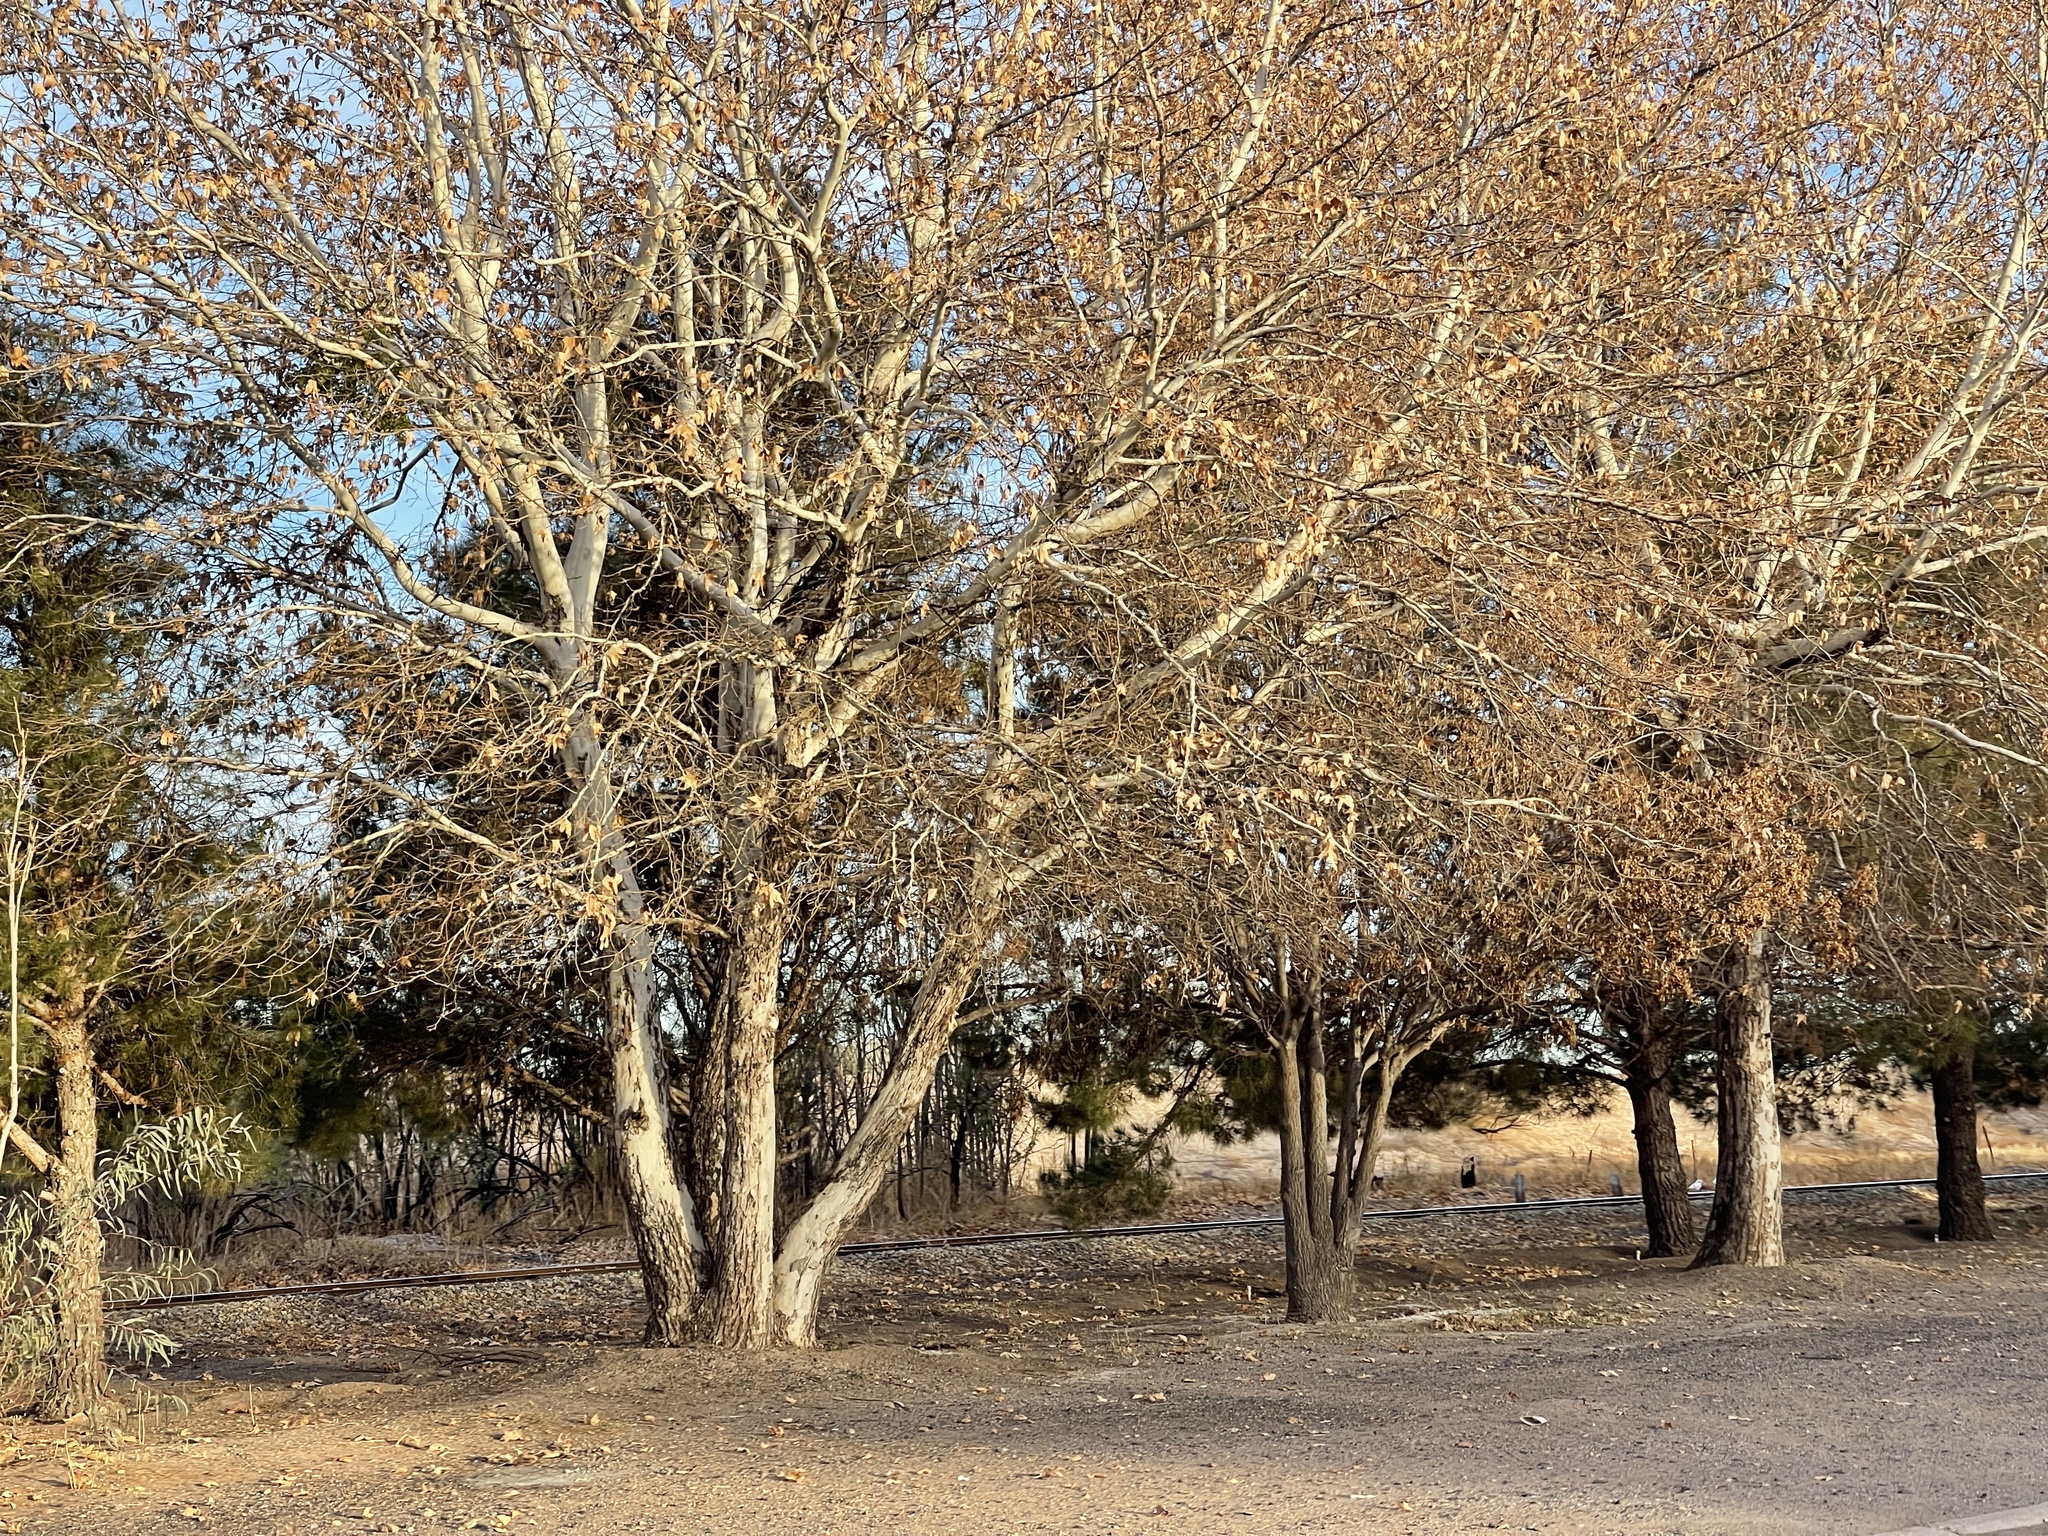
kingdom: Plantae
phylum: Tracheophyta
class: Magnoliopsida
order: Proteales
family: Platanaceae
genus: Platanus
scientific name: Platanus wrightii
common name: Arizona sycamore
